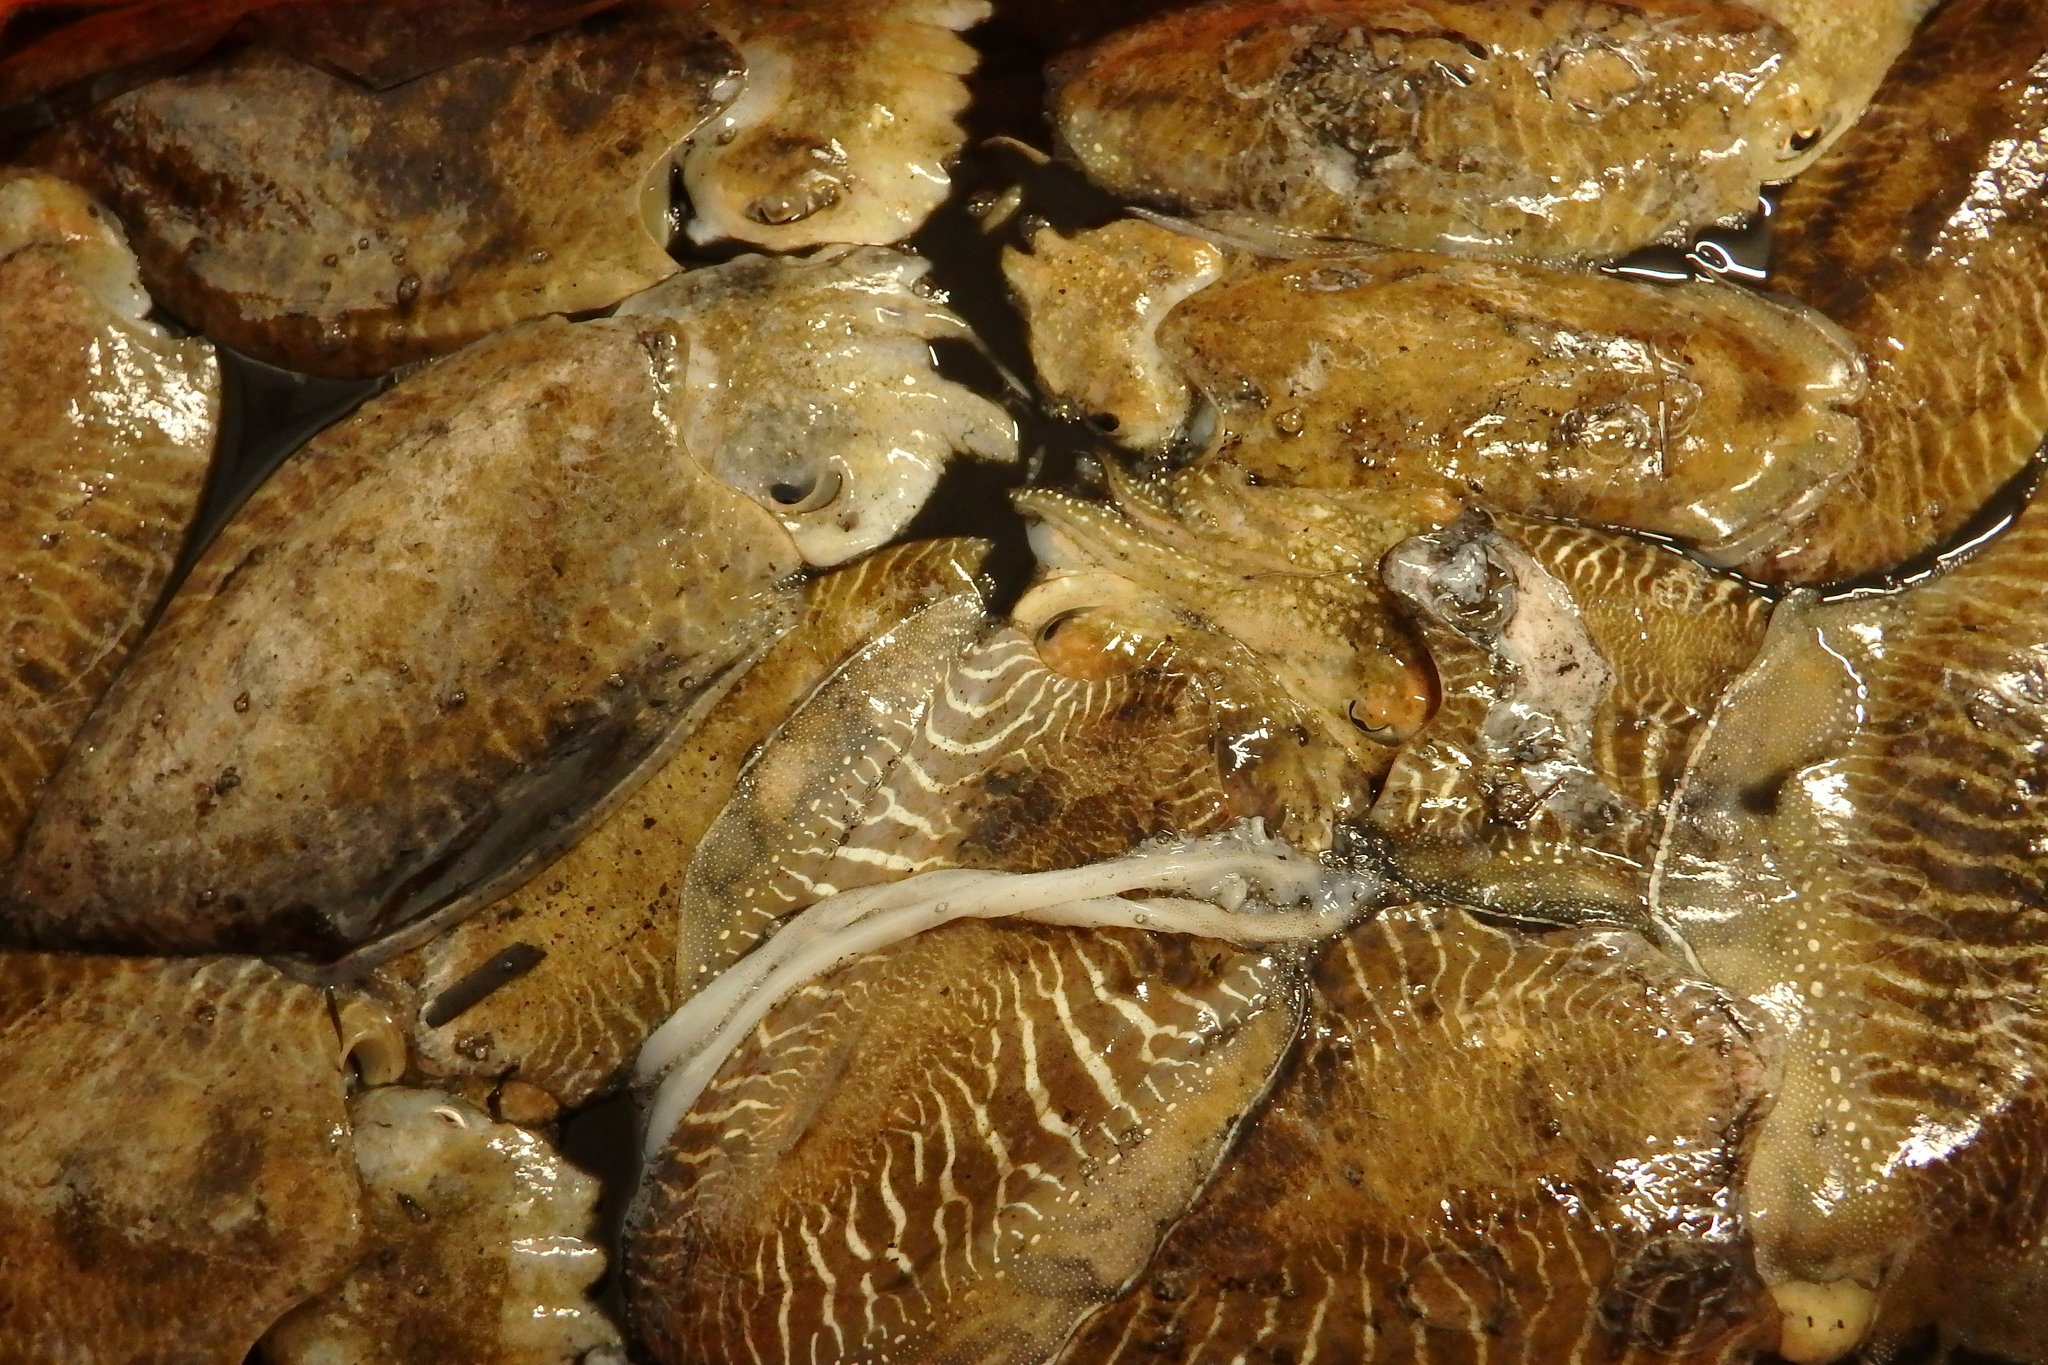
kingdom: Animalia
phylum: Mollusca
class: Cephalopoda
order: Sepiida
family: Sepiidae
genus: Sepia
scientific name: Sepia officinalis
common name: Common cuttlefish
